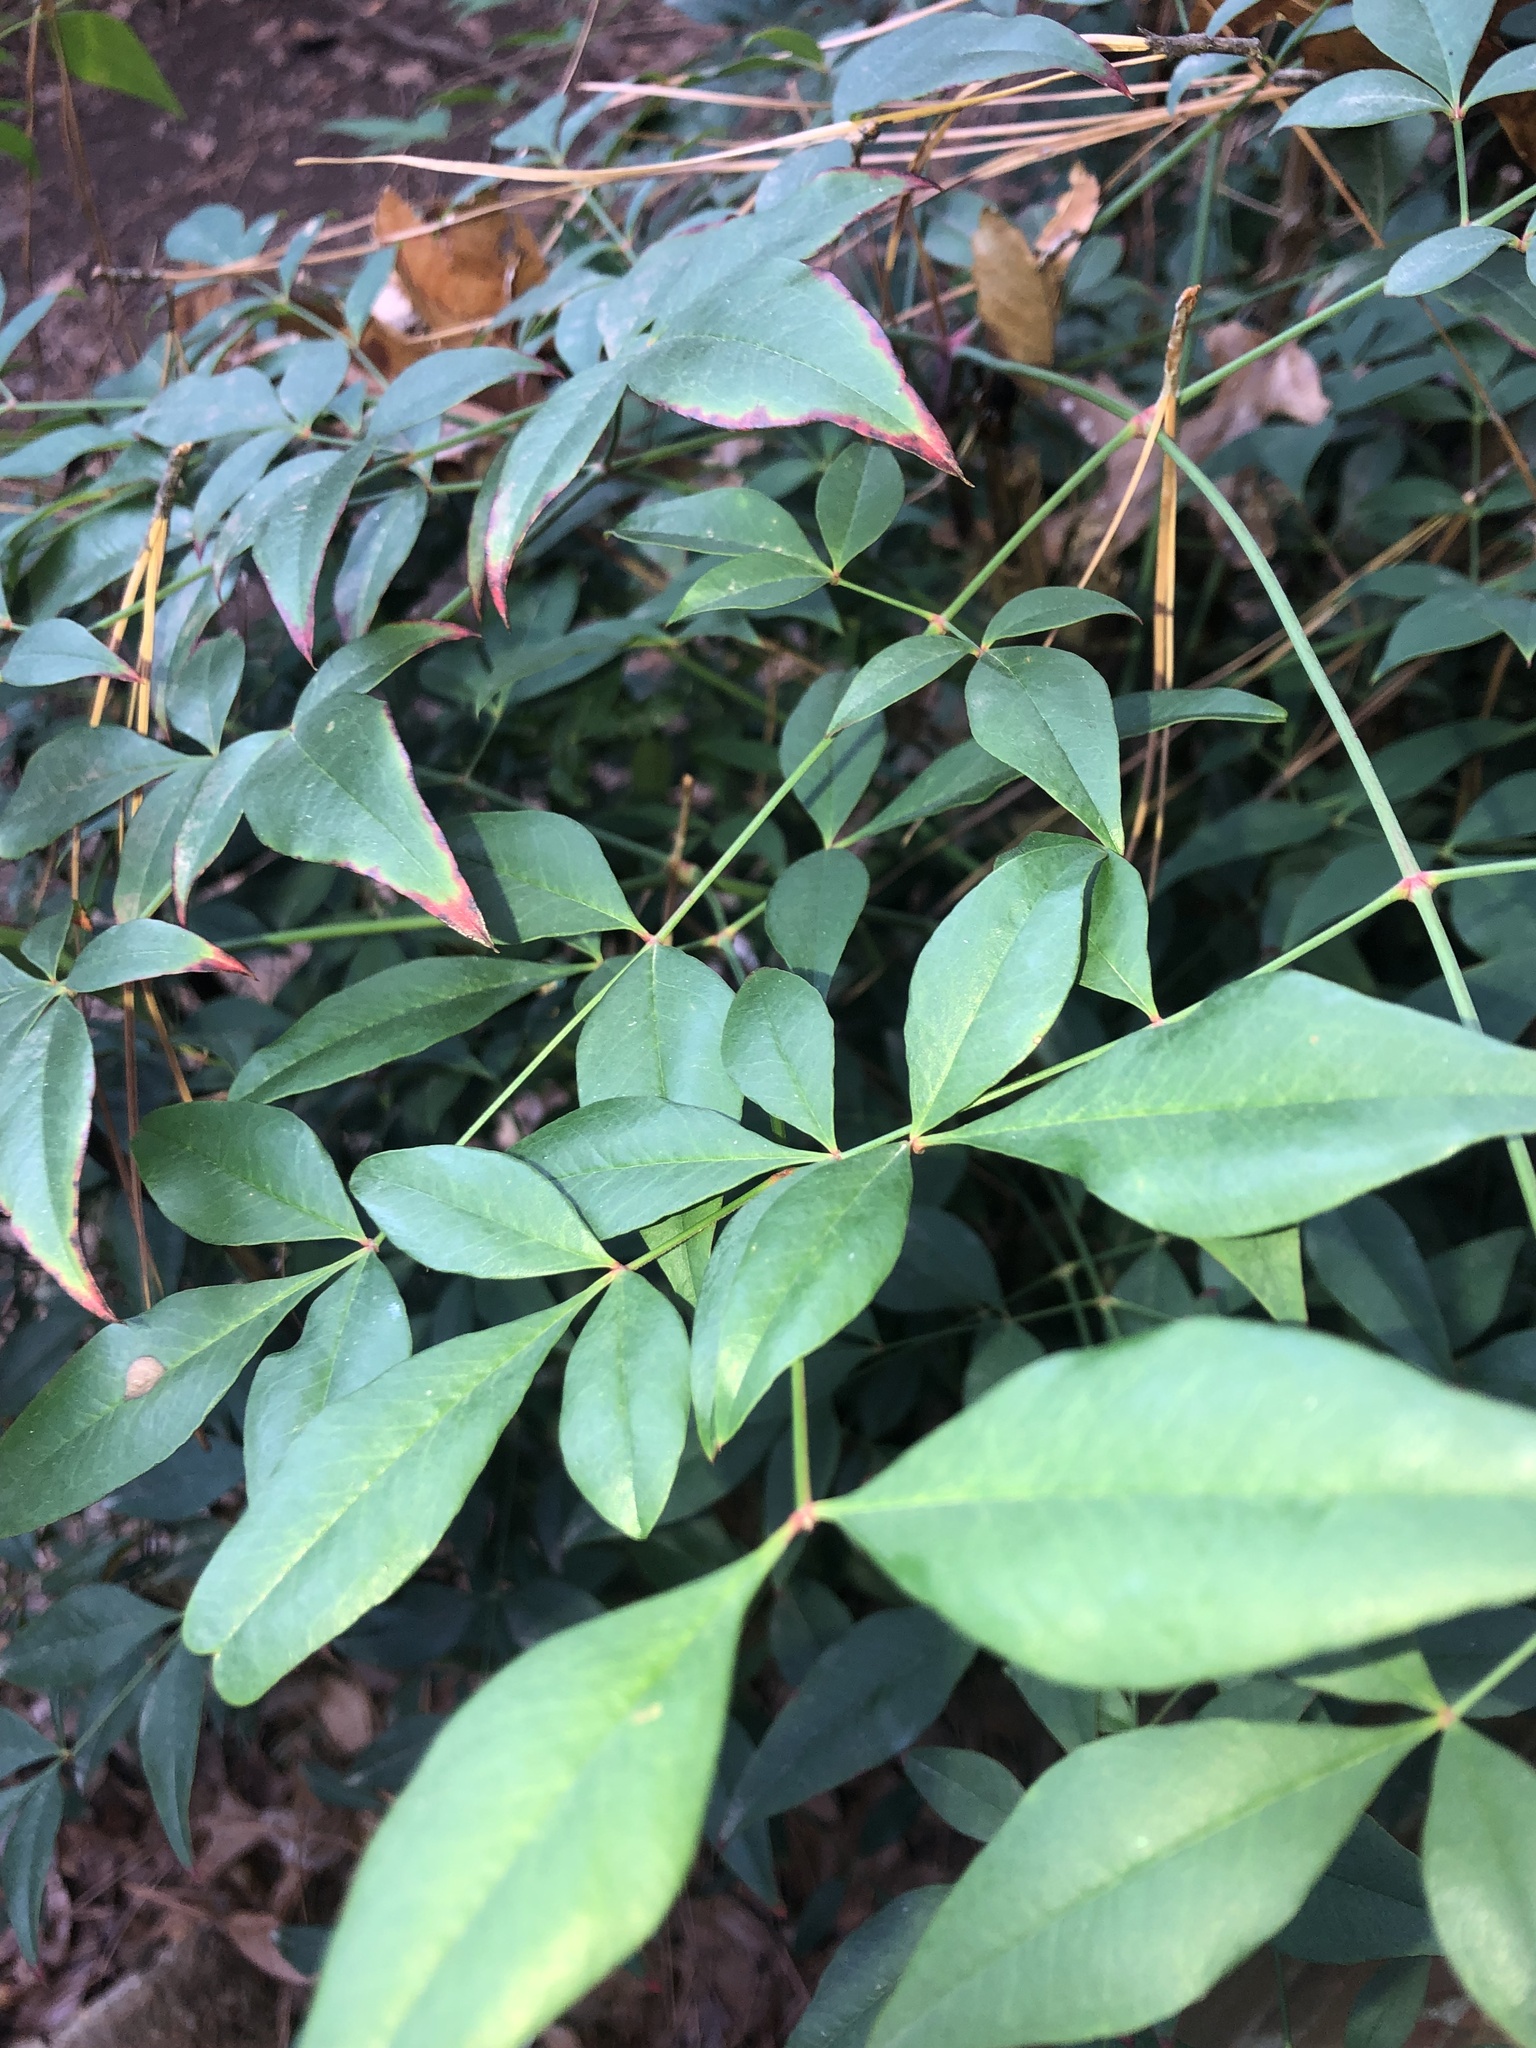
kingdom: Plantae
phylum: Tracheophyta
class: Magnoliopsida
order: Ranunculales
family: Berberidaceae
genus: Nandina
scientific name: Nandina domestica
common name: Sacred bamboo
